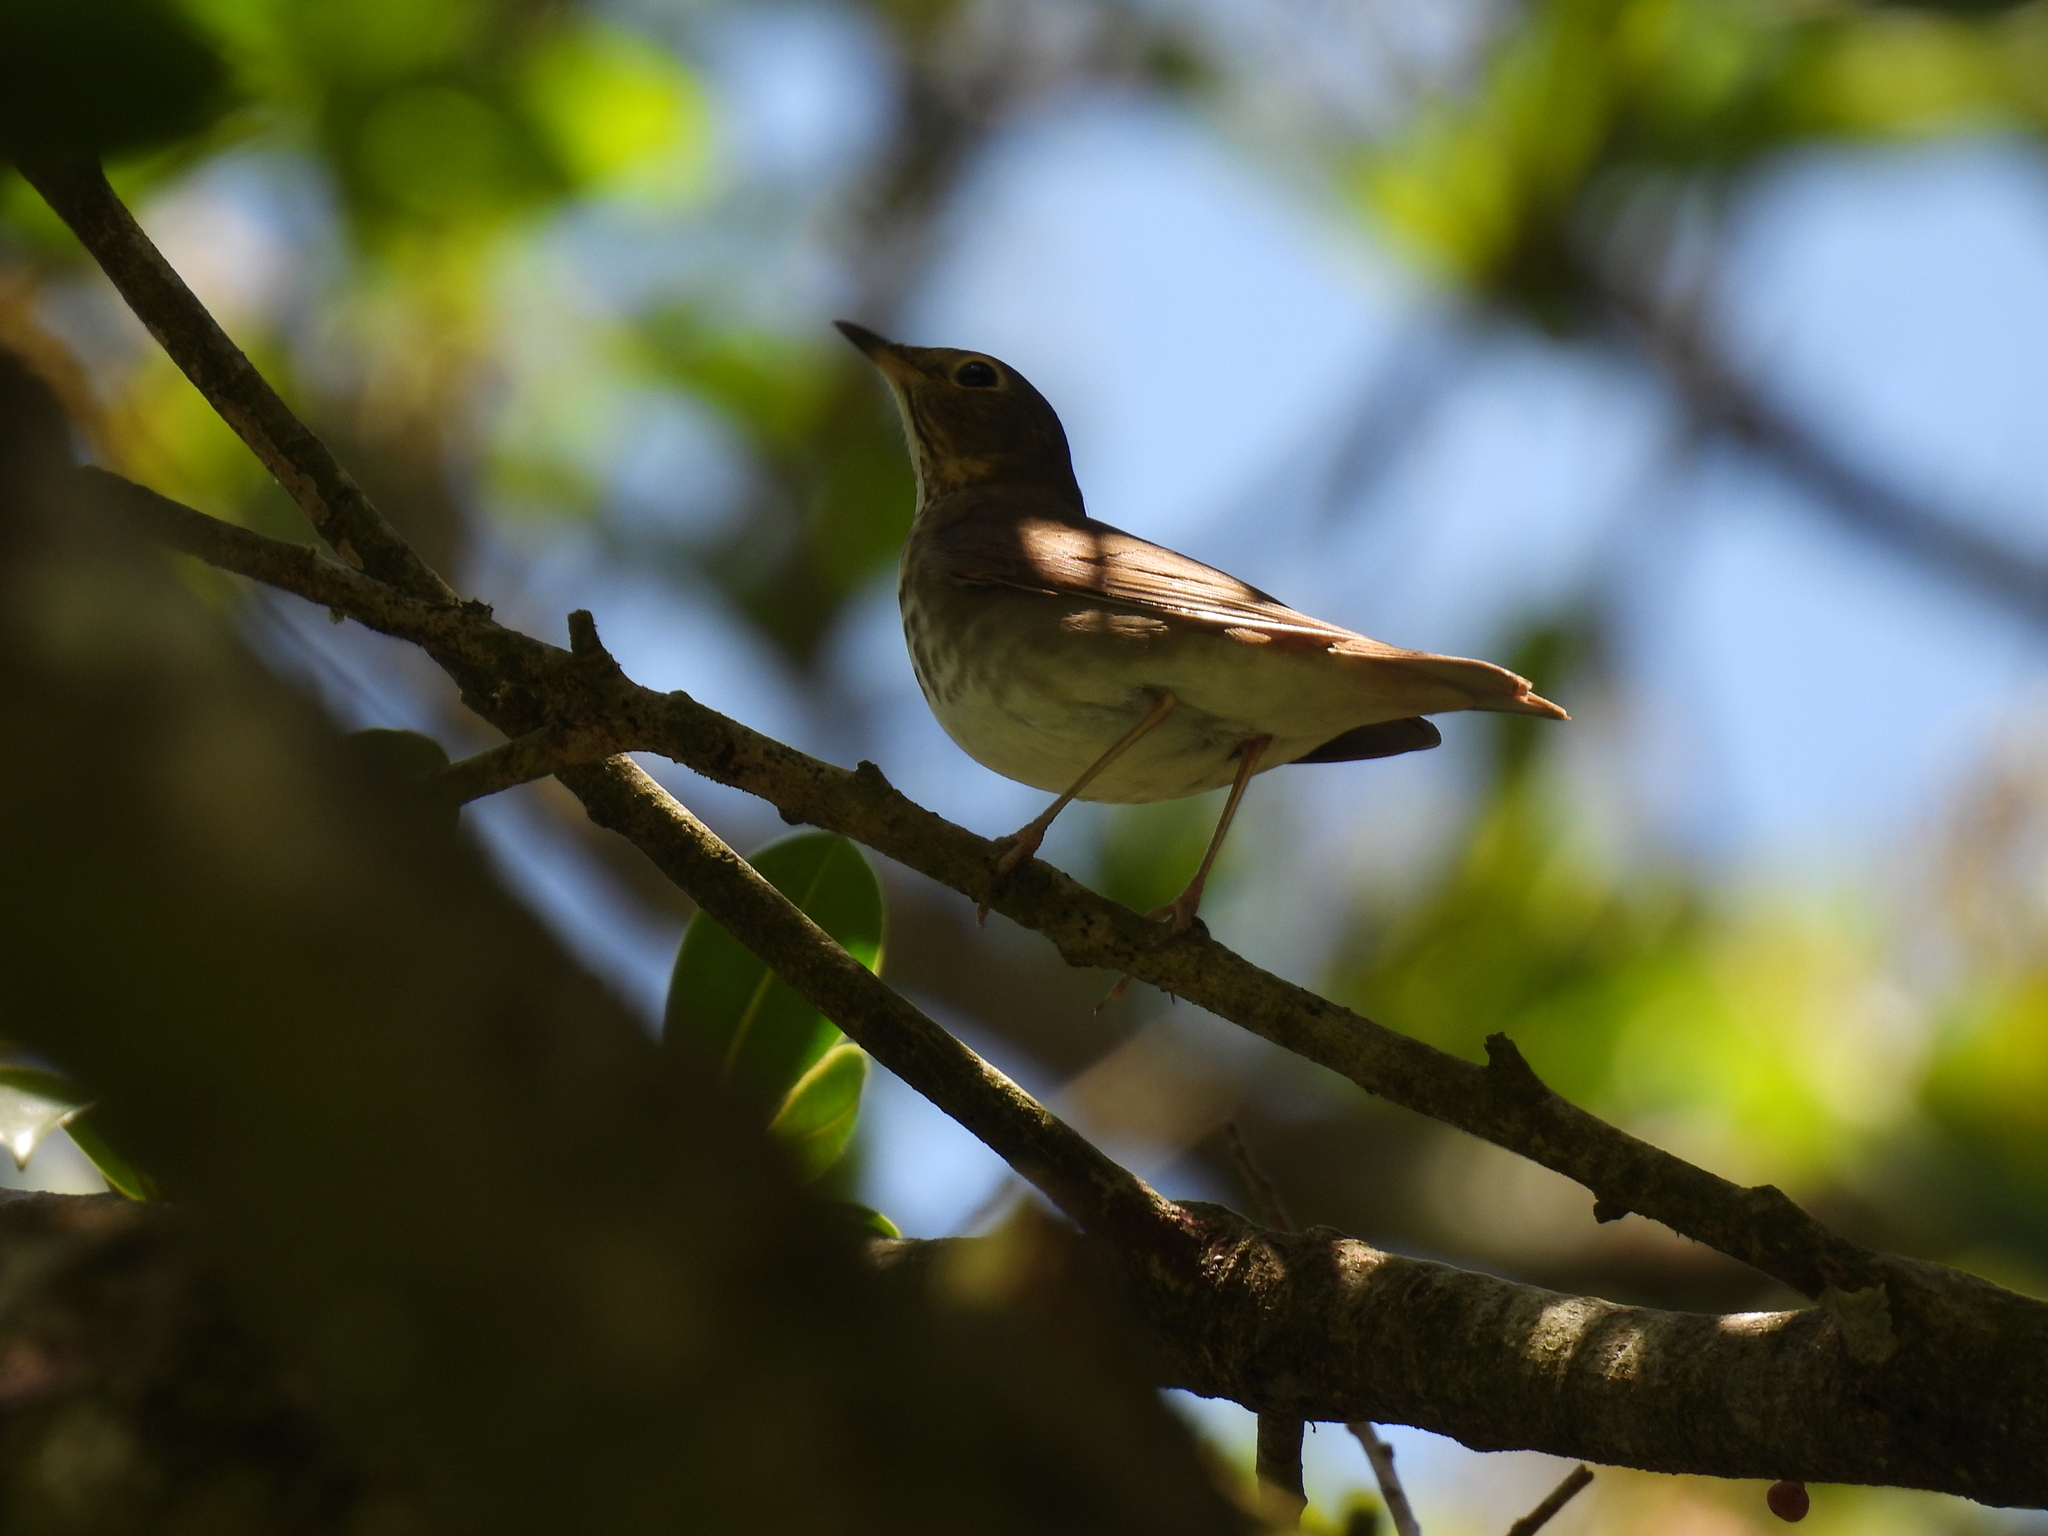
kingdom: Animalia
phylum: Chordata
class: Aves
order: Passeriformes
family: Turdidae
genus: Catharus
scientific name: Catharus ustulatus
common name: Swainson's thrush
